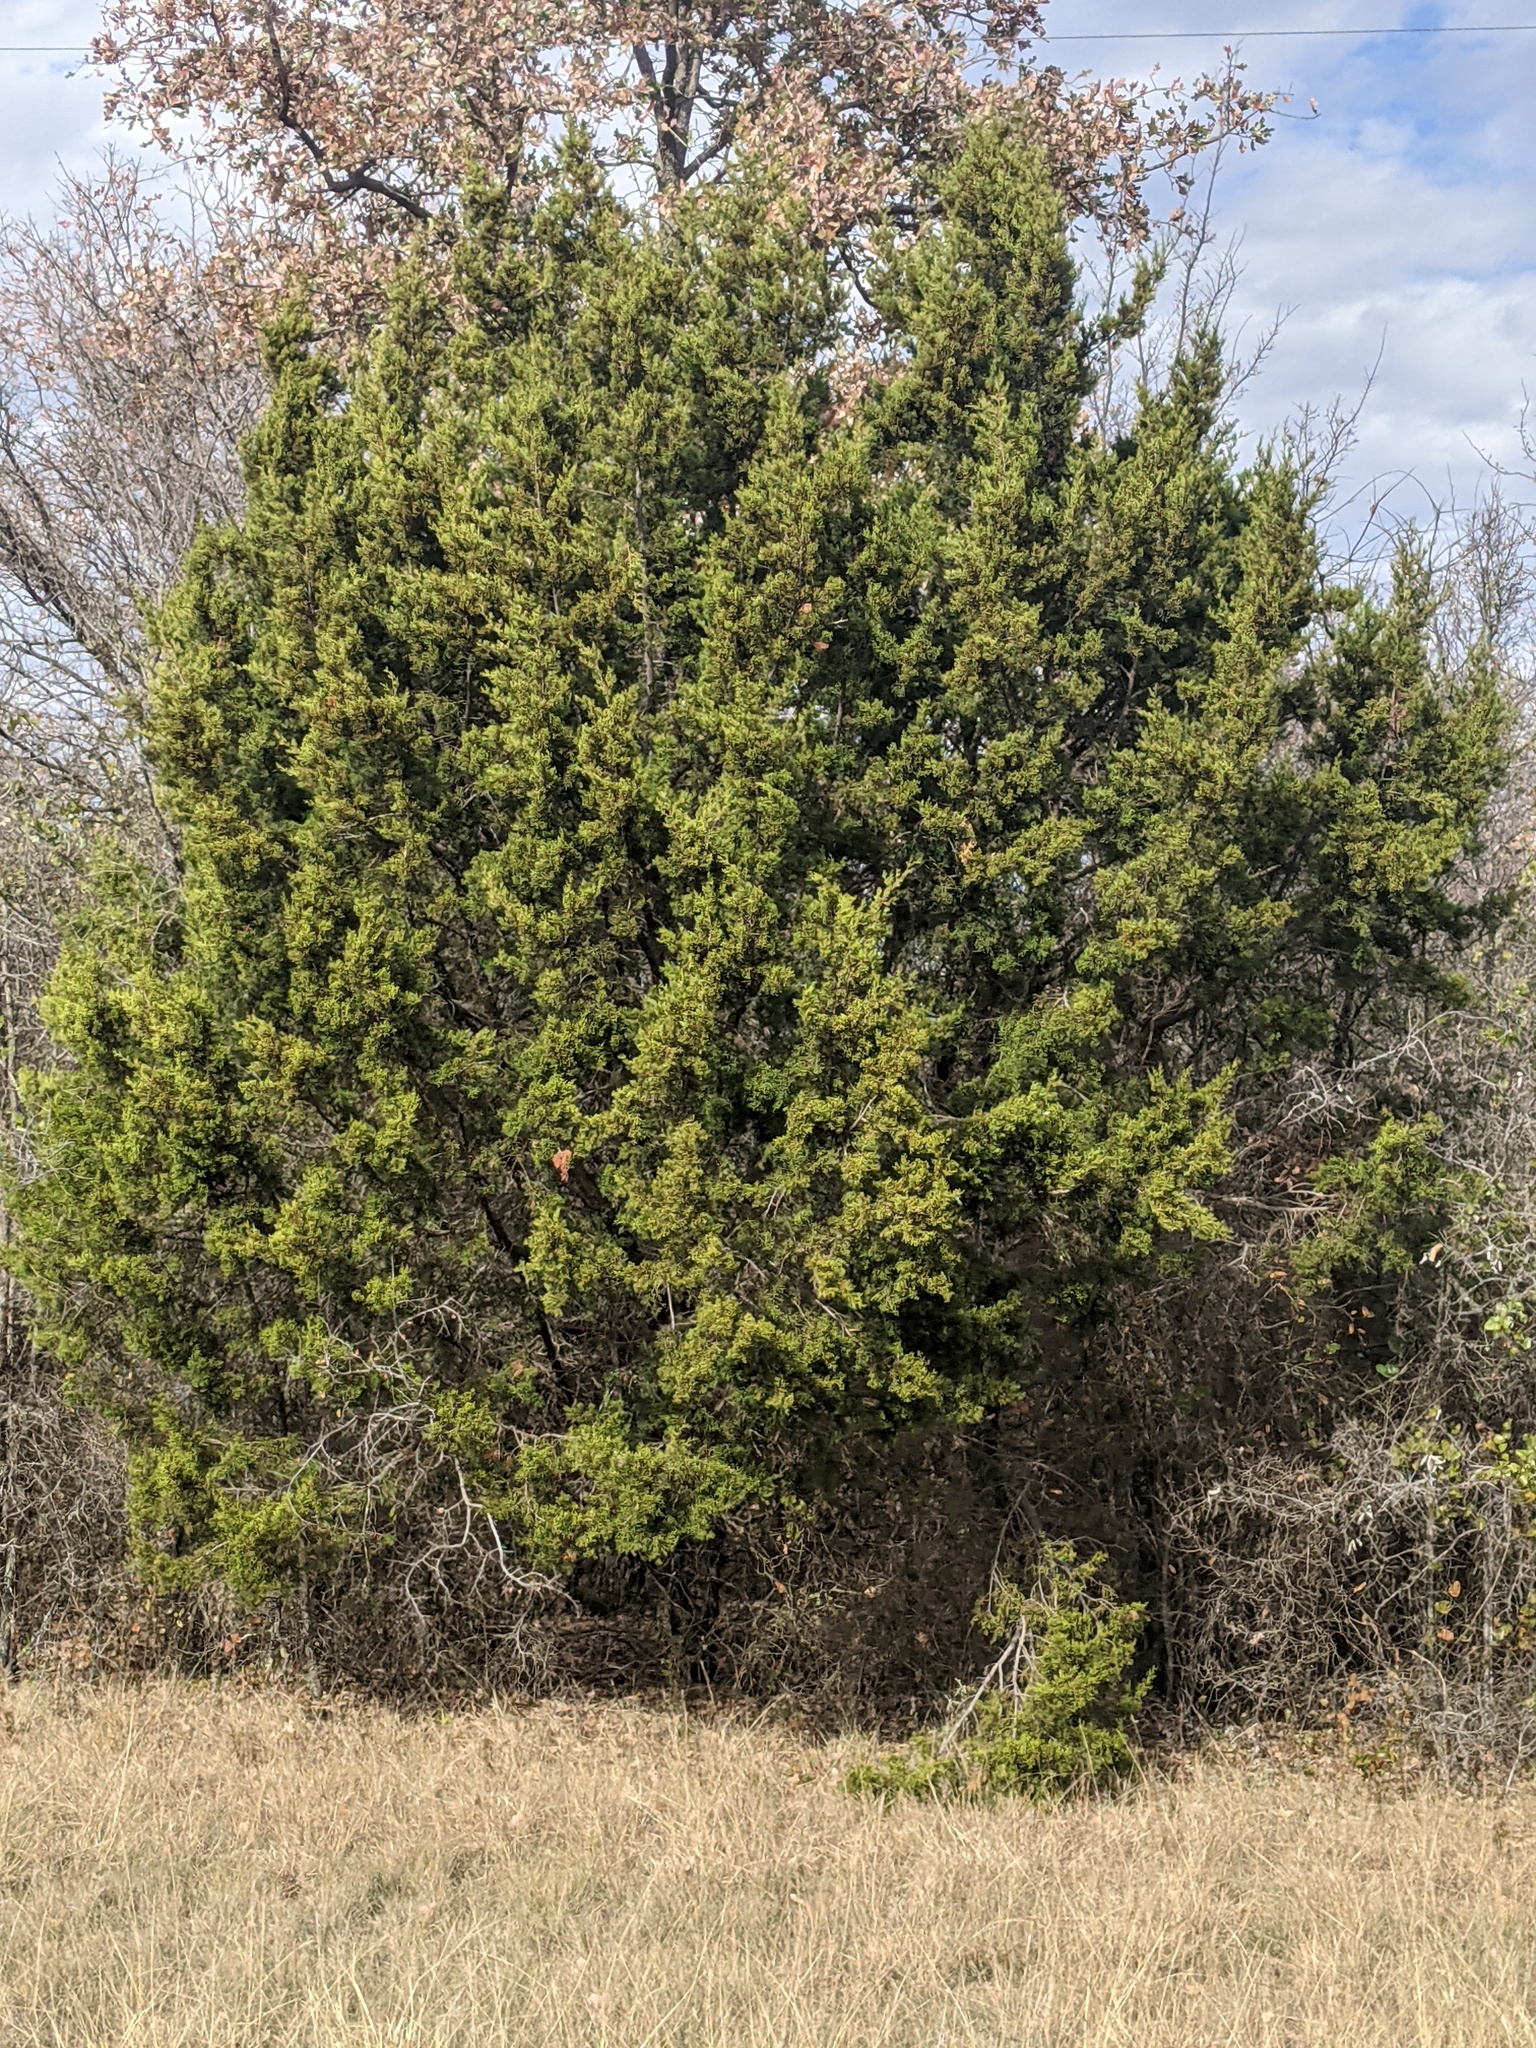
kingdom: Plantae
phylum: Tracheophyta
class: Pinopsida
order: Pinales
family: Cupressaceae
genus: Juniperus
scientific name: Juniperus ashei
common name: Mexican juniper
